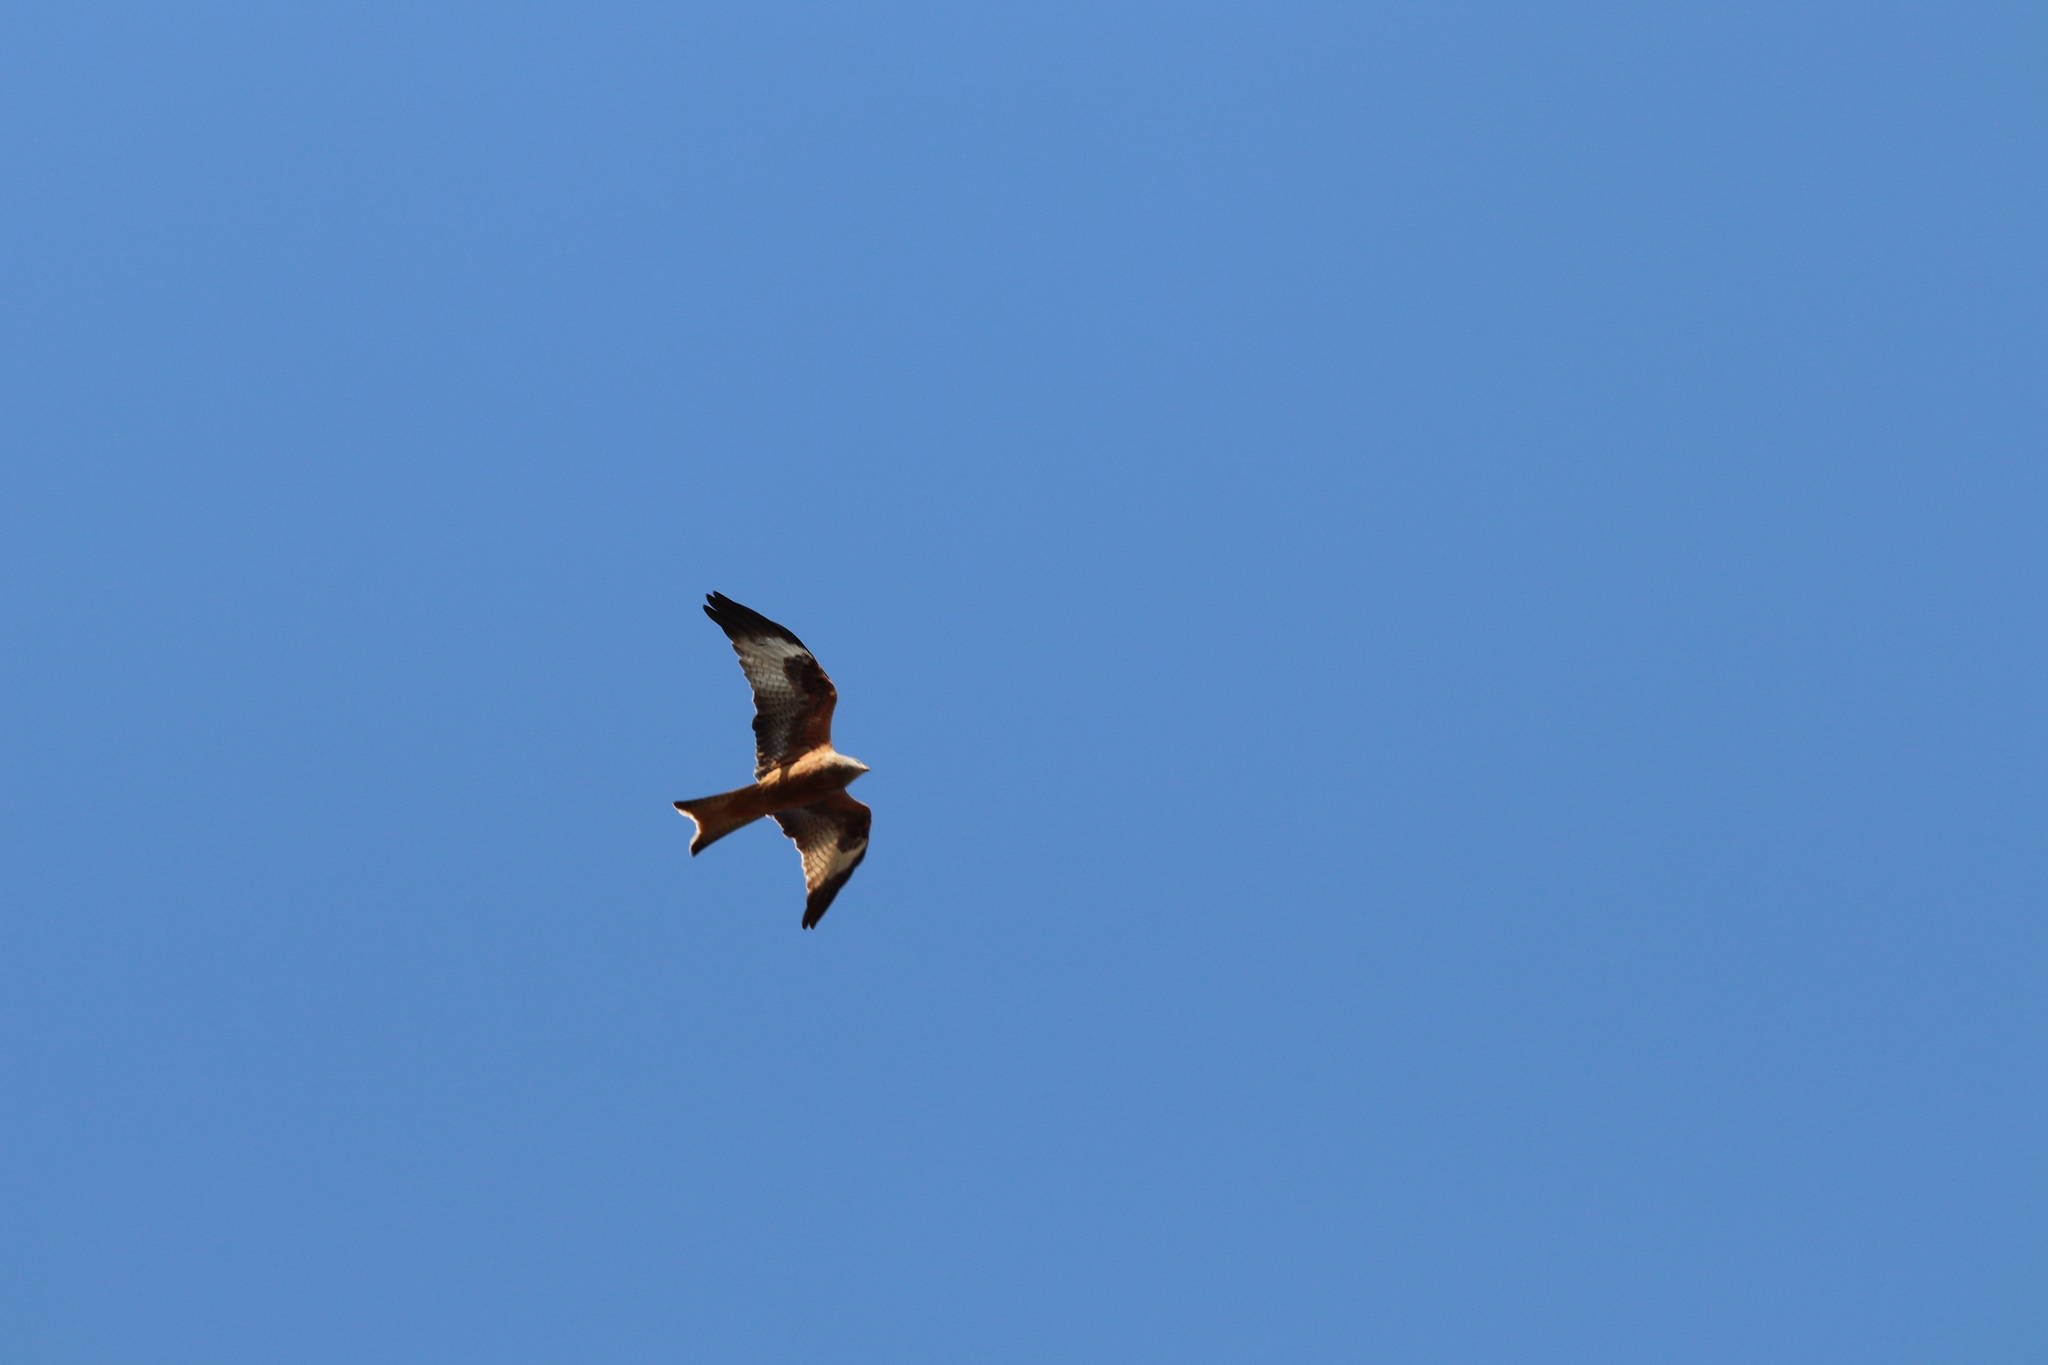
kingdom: Animalia
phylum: Chordata
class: Aves
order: Accipitriformes
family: Accipitridae
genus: Milvus
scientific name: Milvus milvus
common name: Red kite
